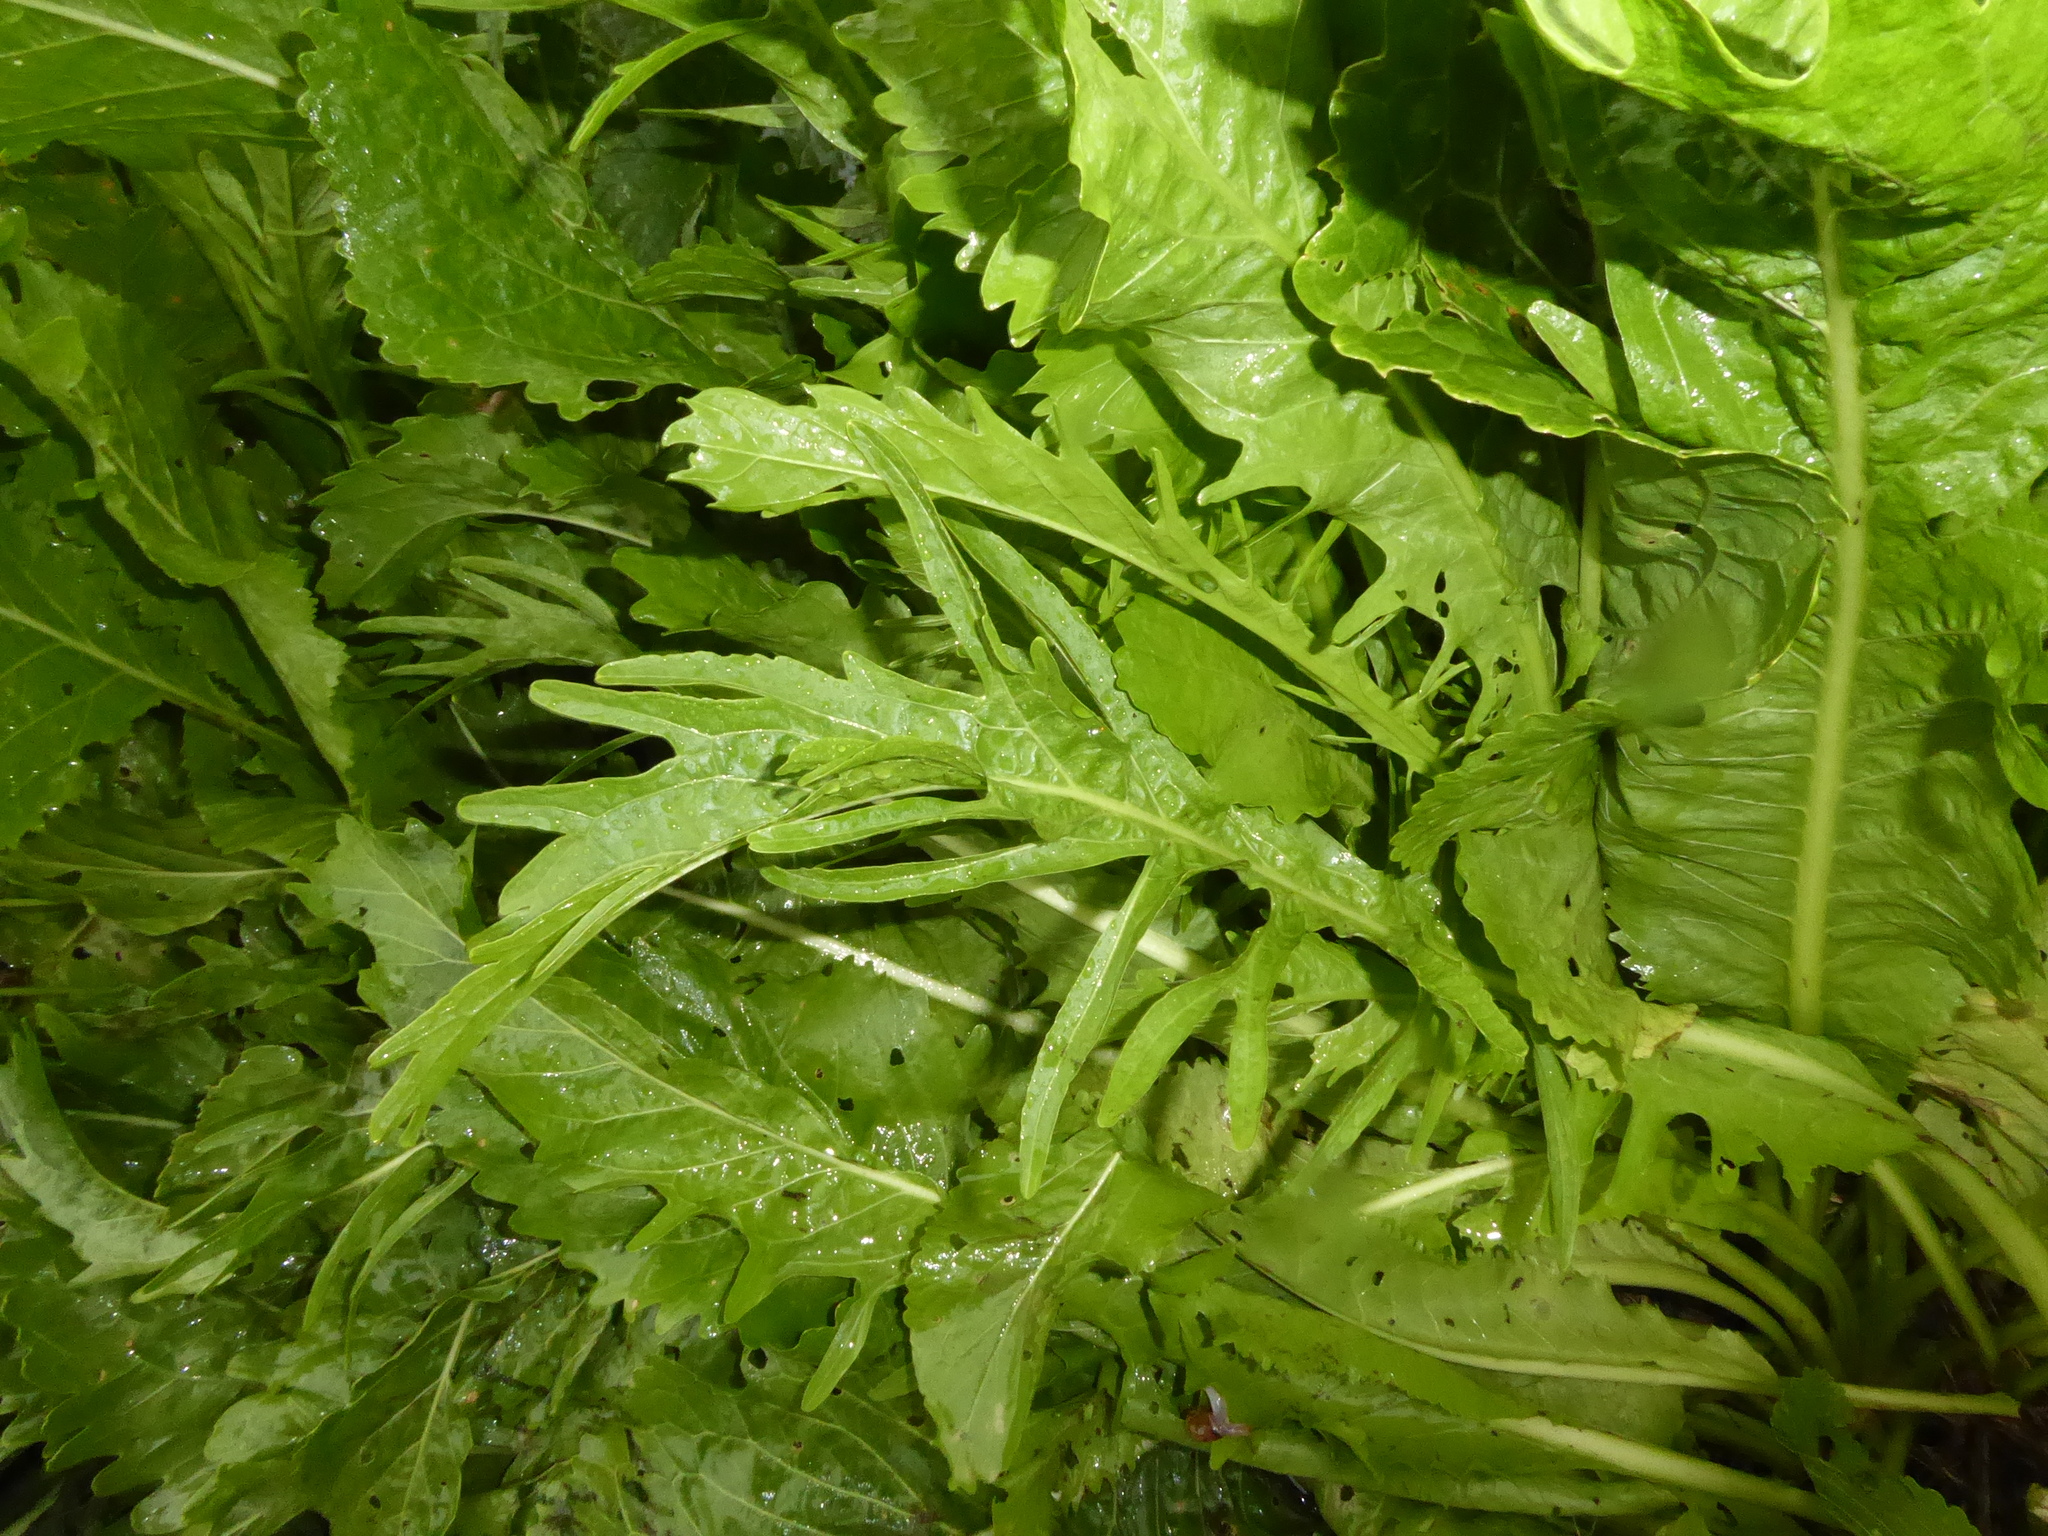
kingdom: Plantae
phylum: Tracheophyta
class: Magnoliopsida
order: Brassicales
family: Brassicaceae
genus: Armoracia
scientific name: Armoracia rusticana
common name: Horseradish
